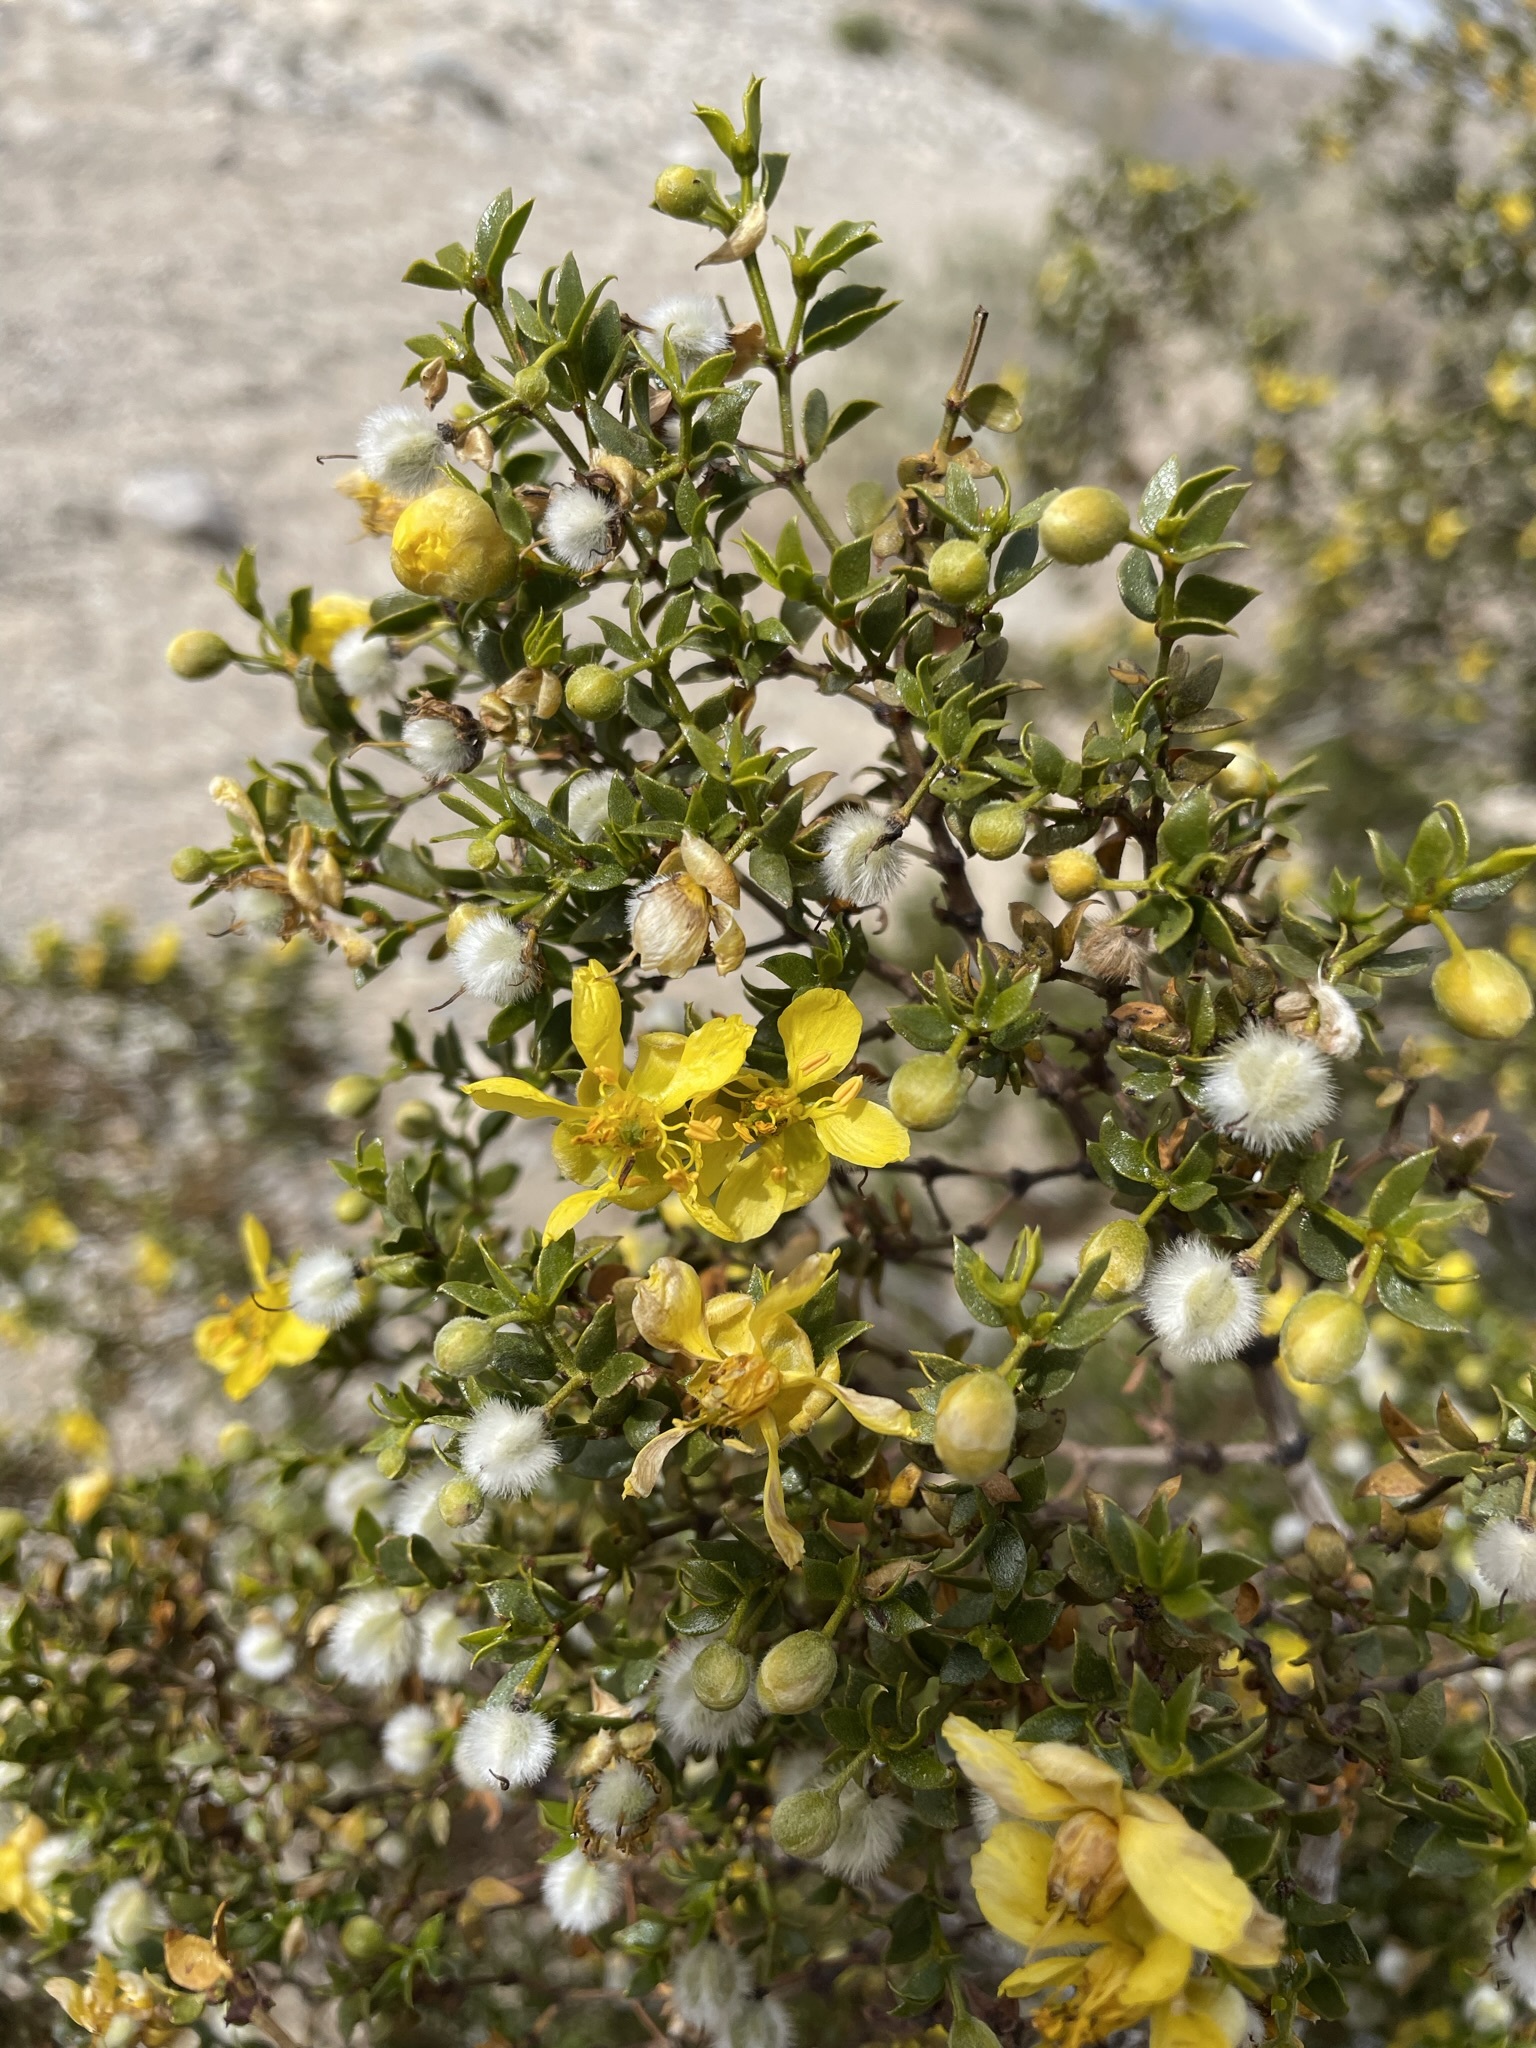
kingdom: Plantae
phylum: Tracheophyta
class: Magnoliopsida
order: Zygophyllales
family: Zygophyllaceae
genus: Larrea
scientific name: Larrea tridentata
